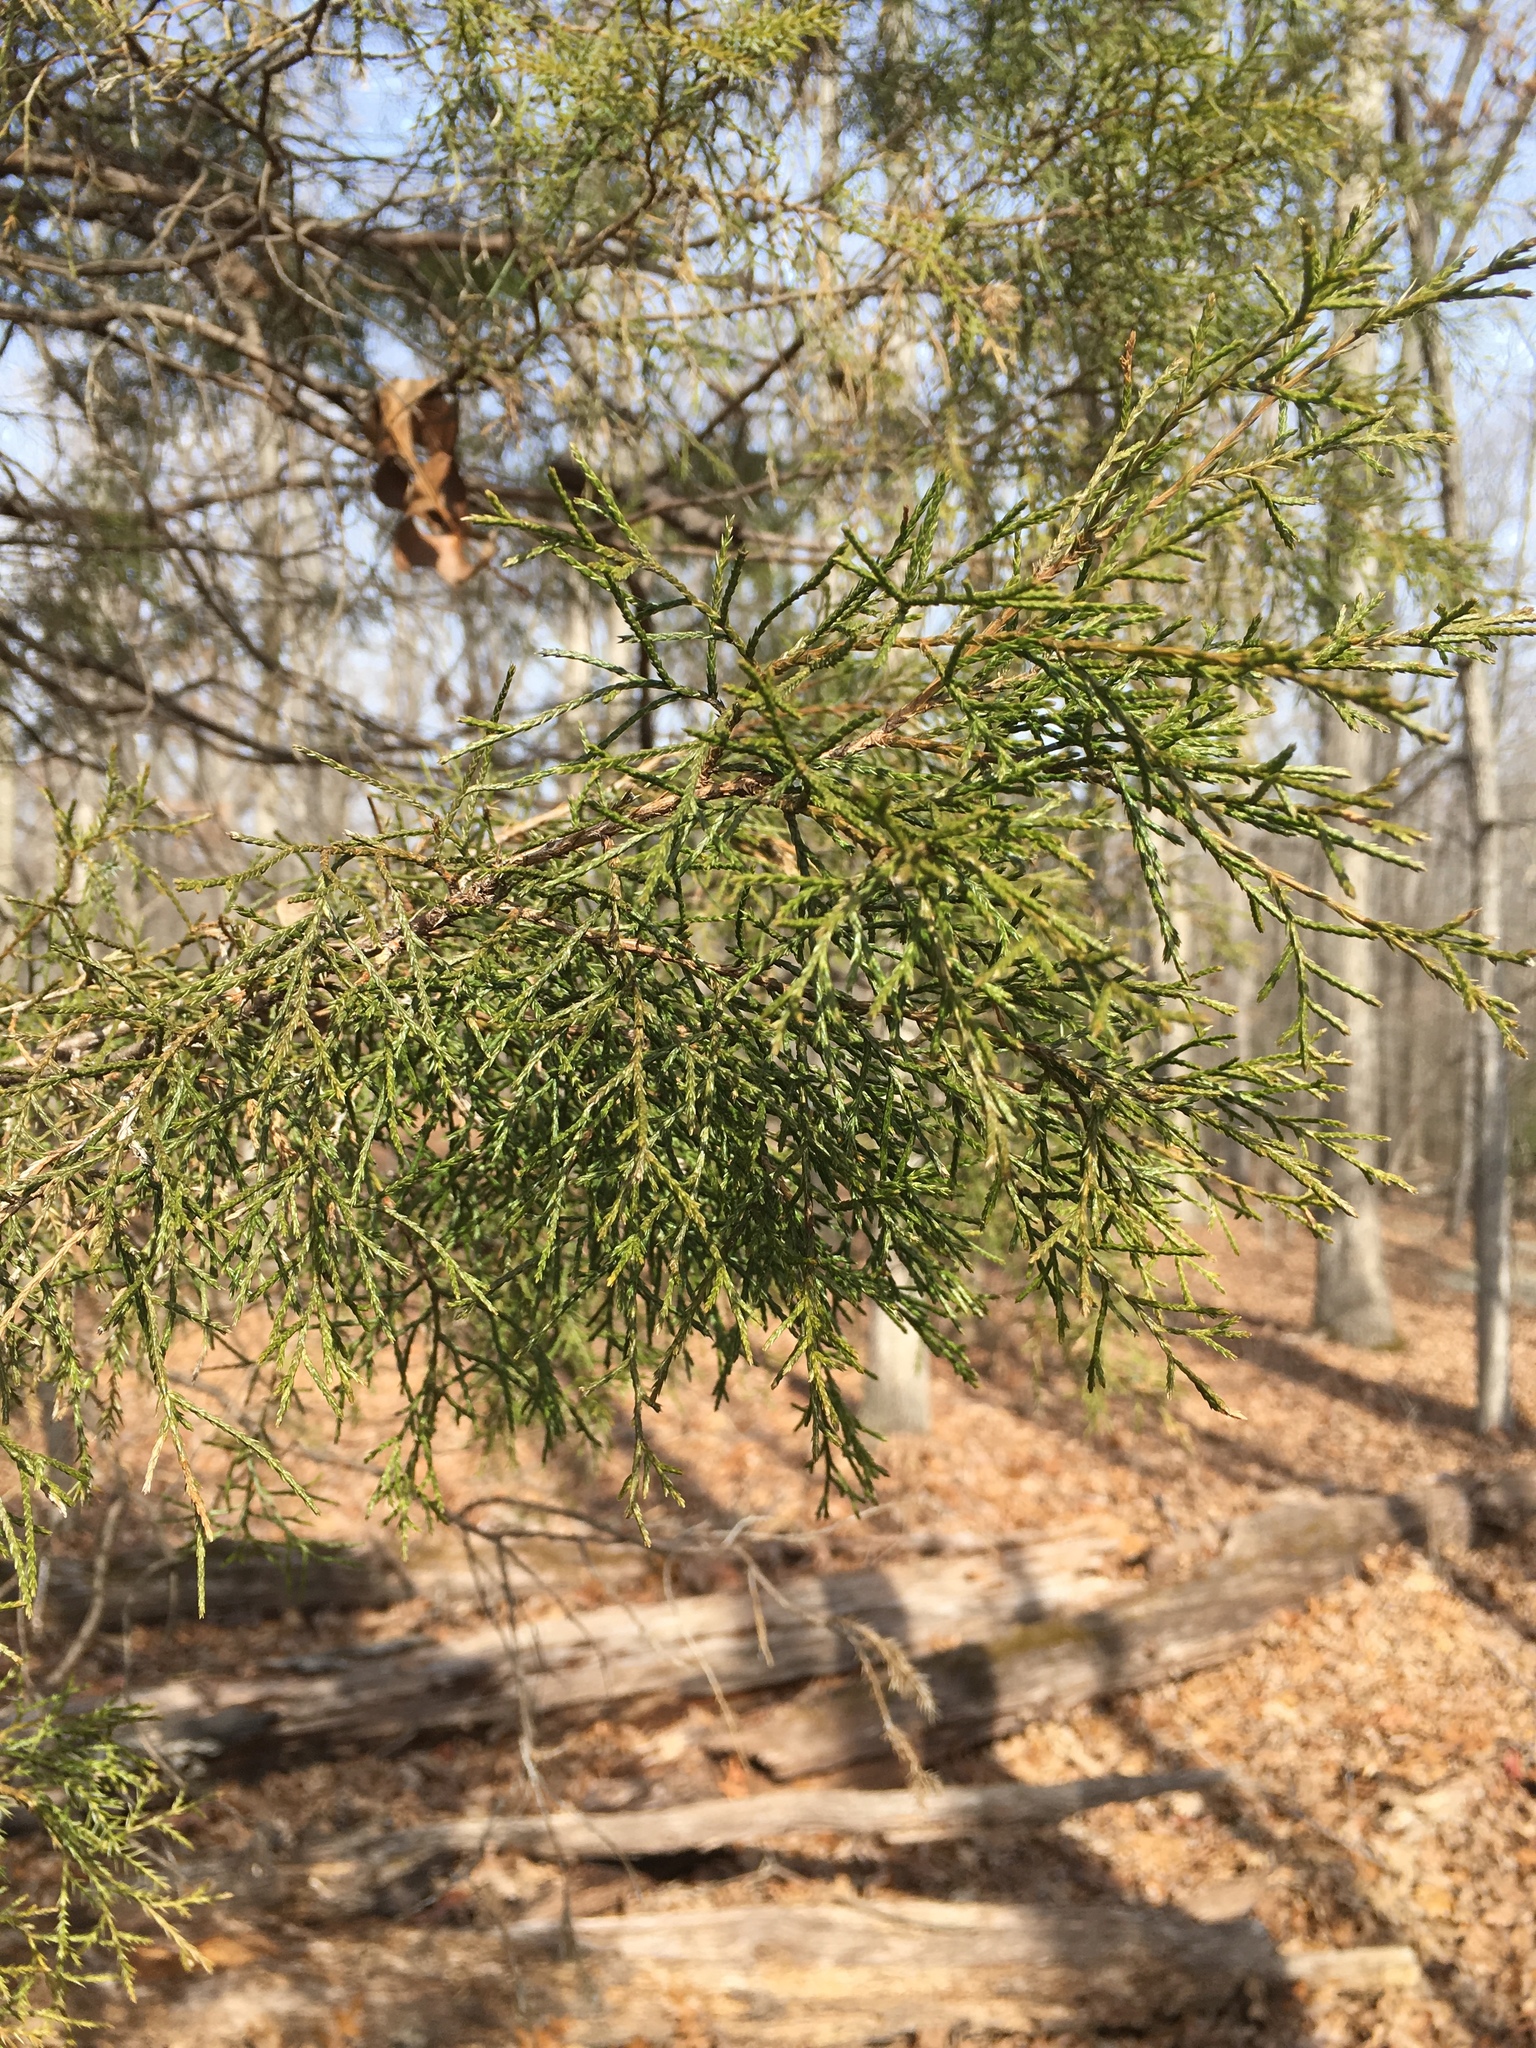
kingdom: Plantae
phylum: Tracheophyta
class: Pinopsida
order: Pinales
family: Cupressaceae
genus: Juniperus
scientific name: Juniperus virginiana
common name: Red juniper
